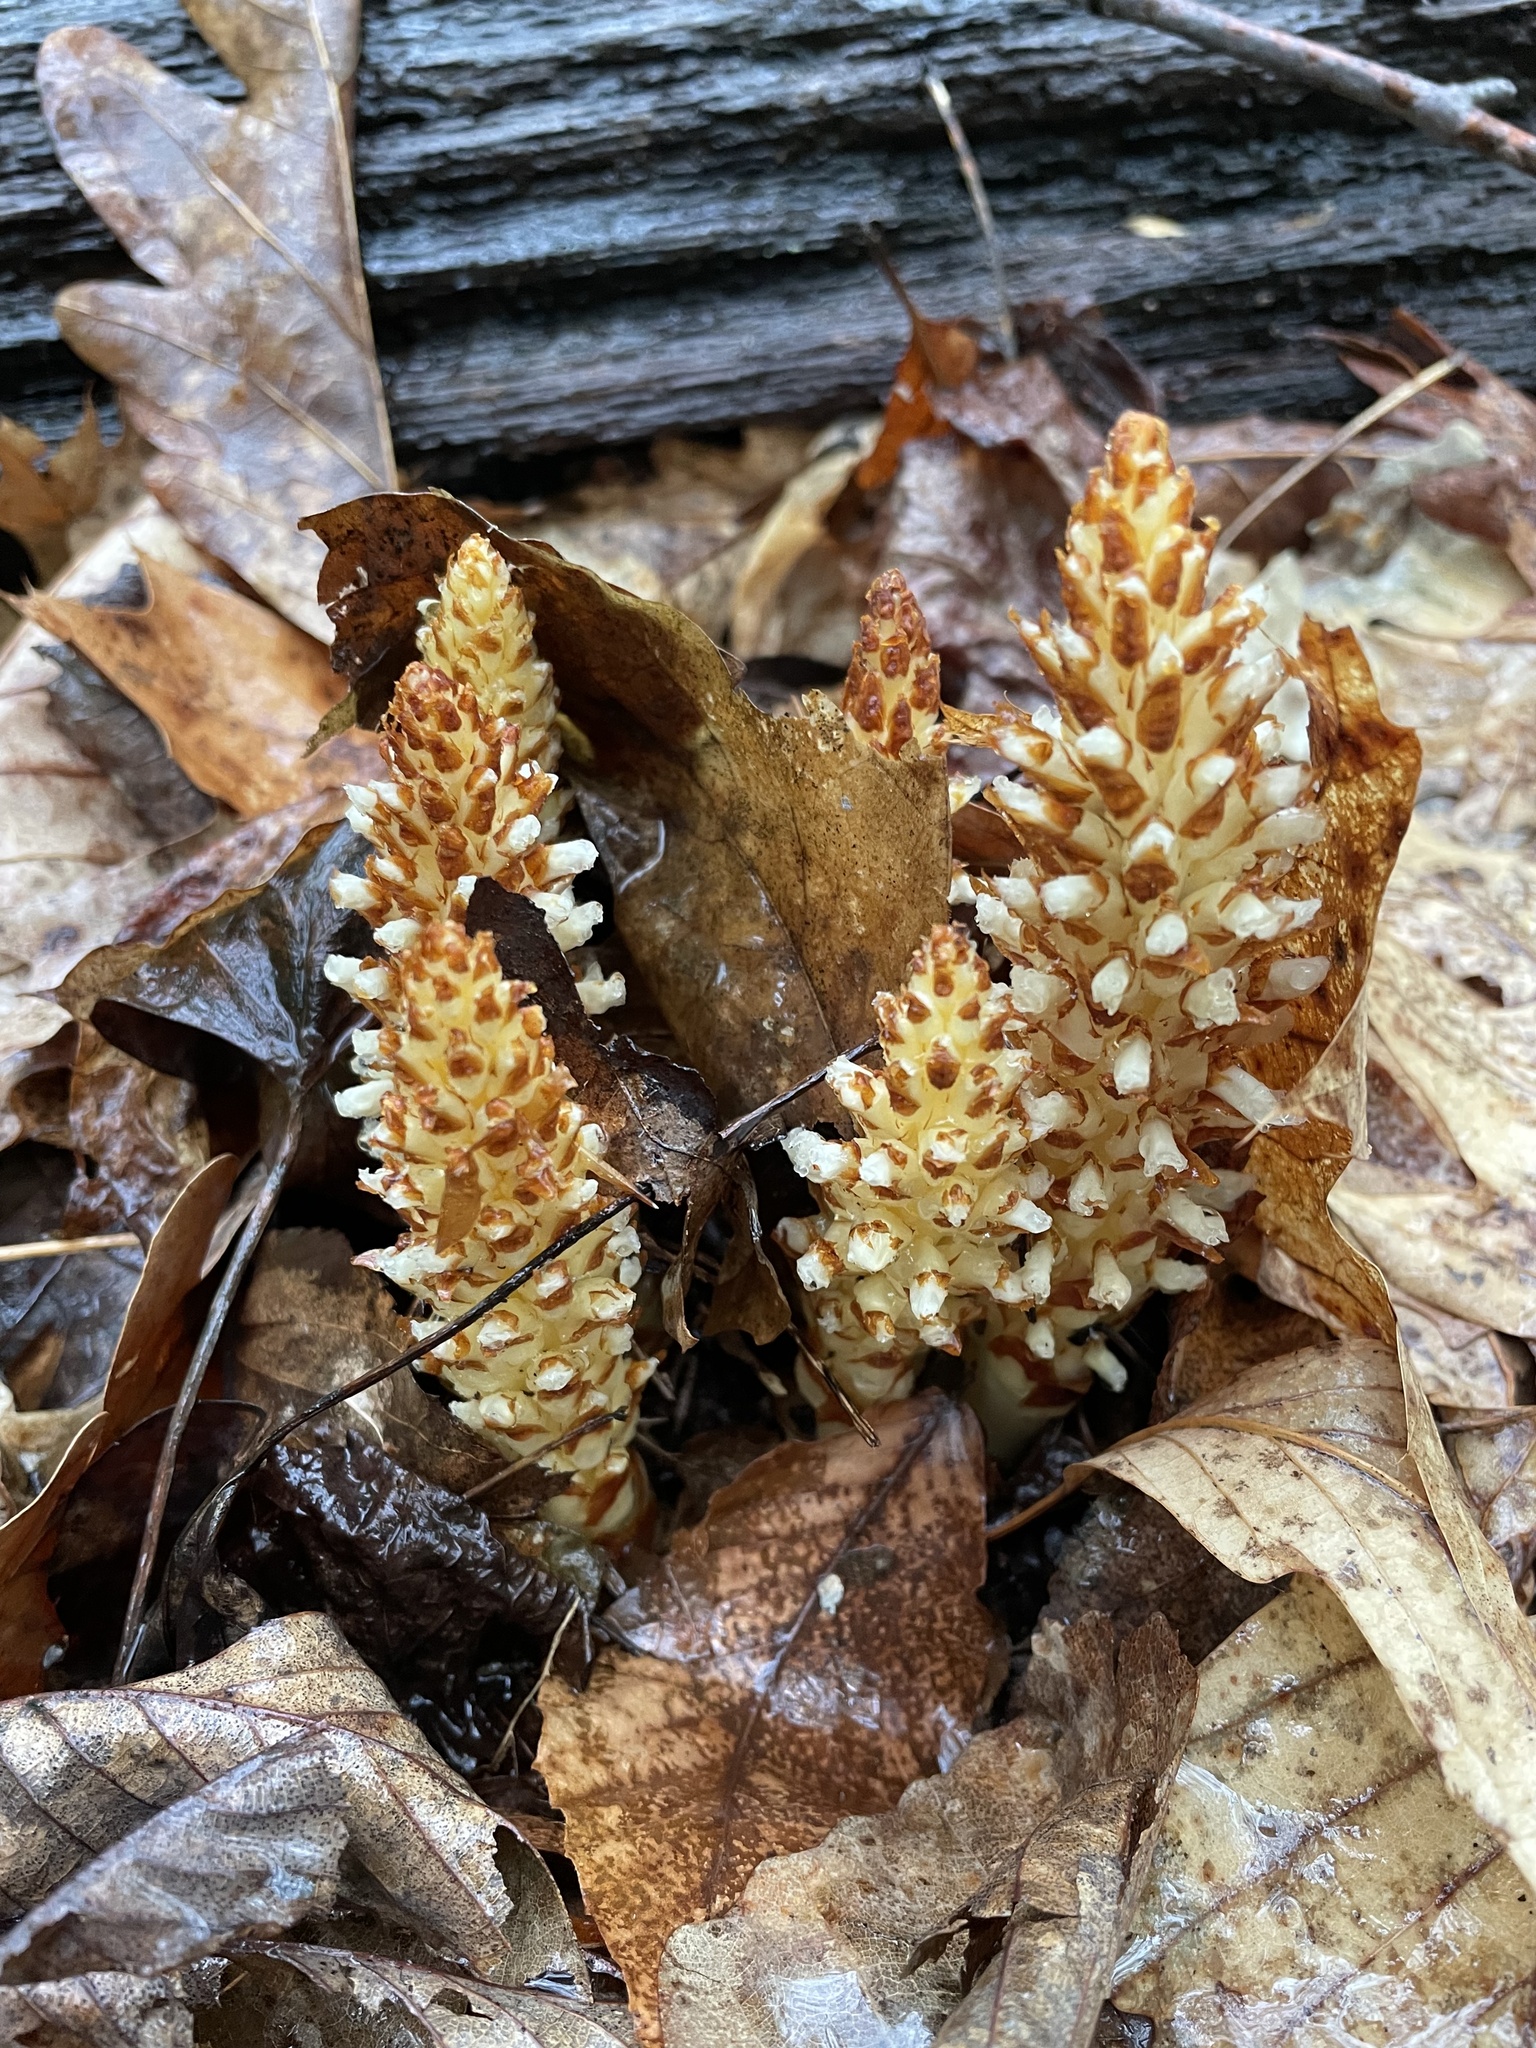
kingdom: Plantae
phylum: Tracheophyta
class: Magnoliopsida
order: Lamiales
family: Orobanchaceae
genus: Conopholis
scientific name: Conopholis americana
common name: American cancer-root
